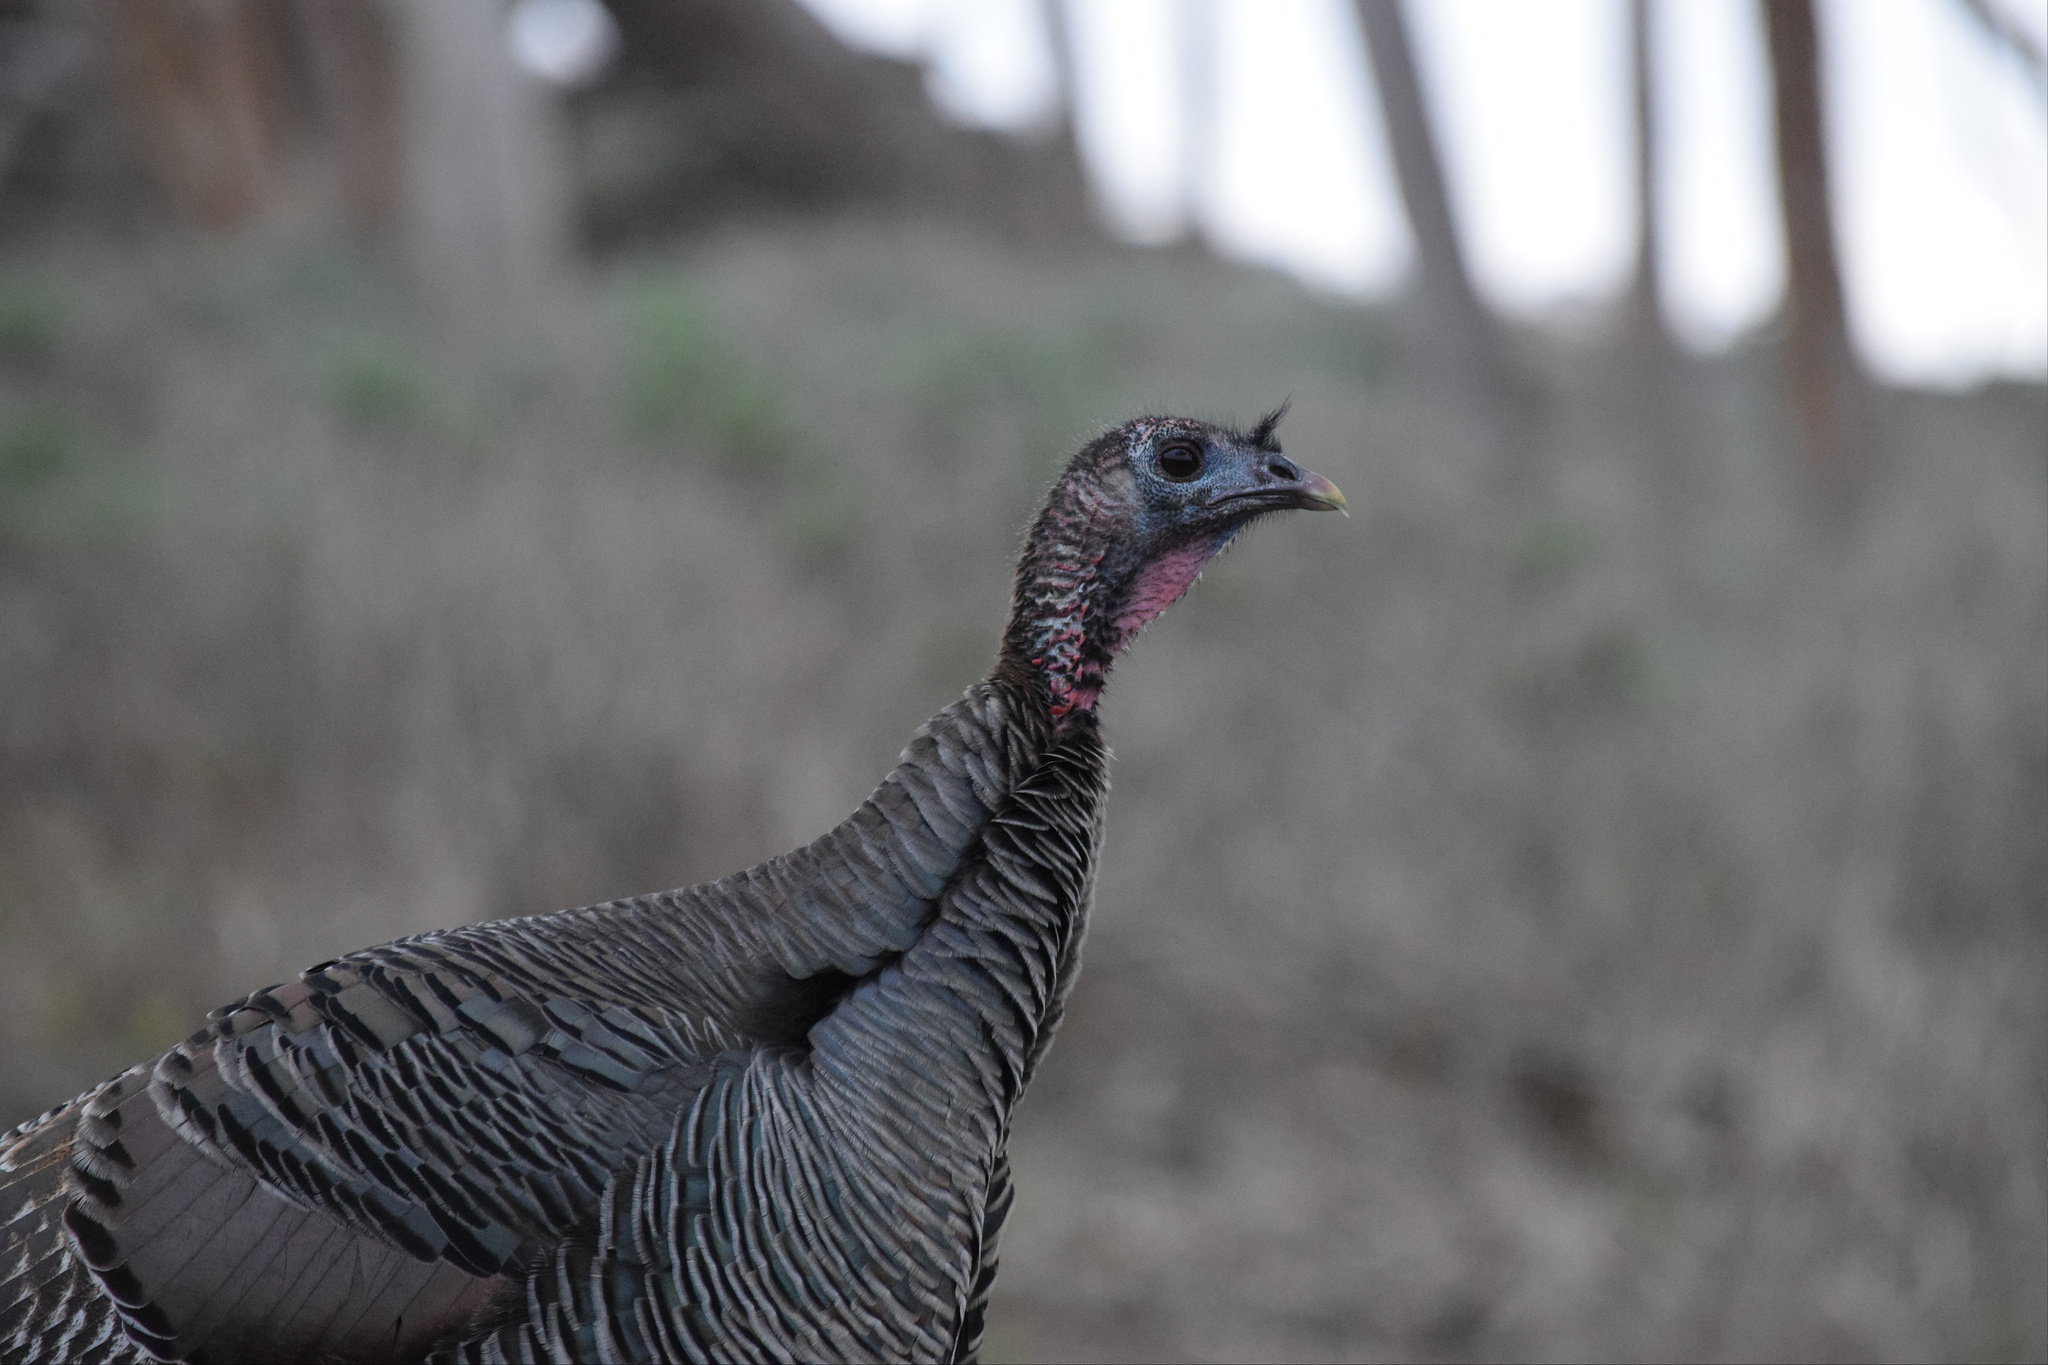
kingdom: Animalia
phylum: Chordata
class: Aves
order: Galliformes
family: Phasianidae
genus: Meleagris
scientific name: Meleagris gallopavo
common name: Wild turkey
